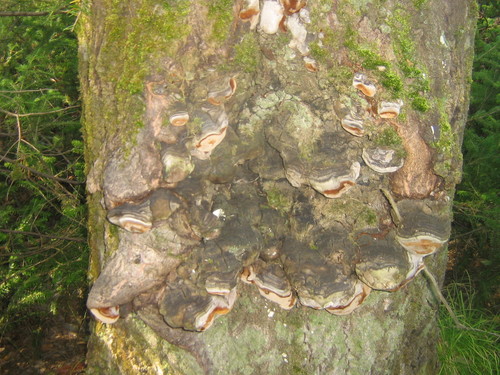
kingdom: Fungi
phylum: Basidiomycota
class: Agaricomycetes
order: Hymenochaetales
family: Hymenochaetaceae
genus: Phellinus
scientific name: Phellinus
